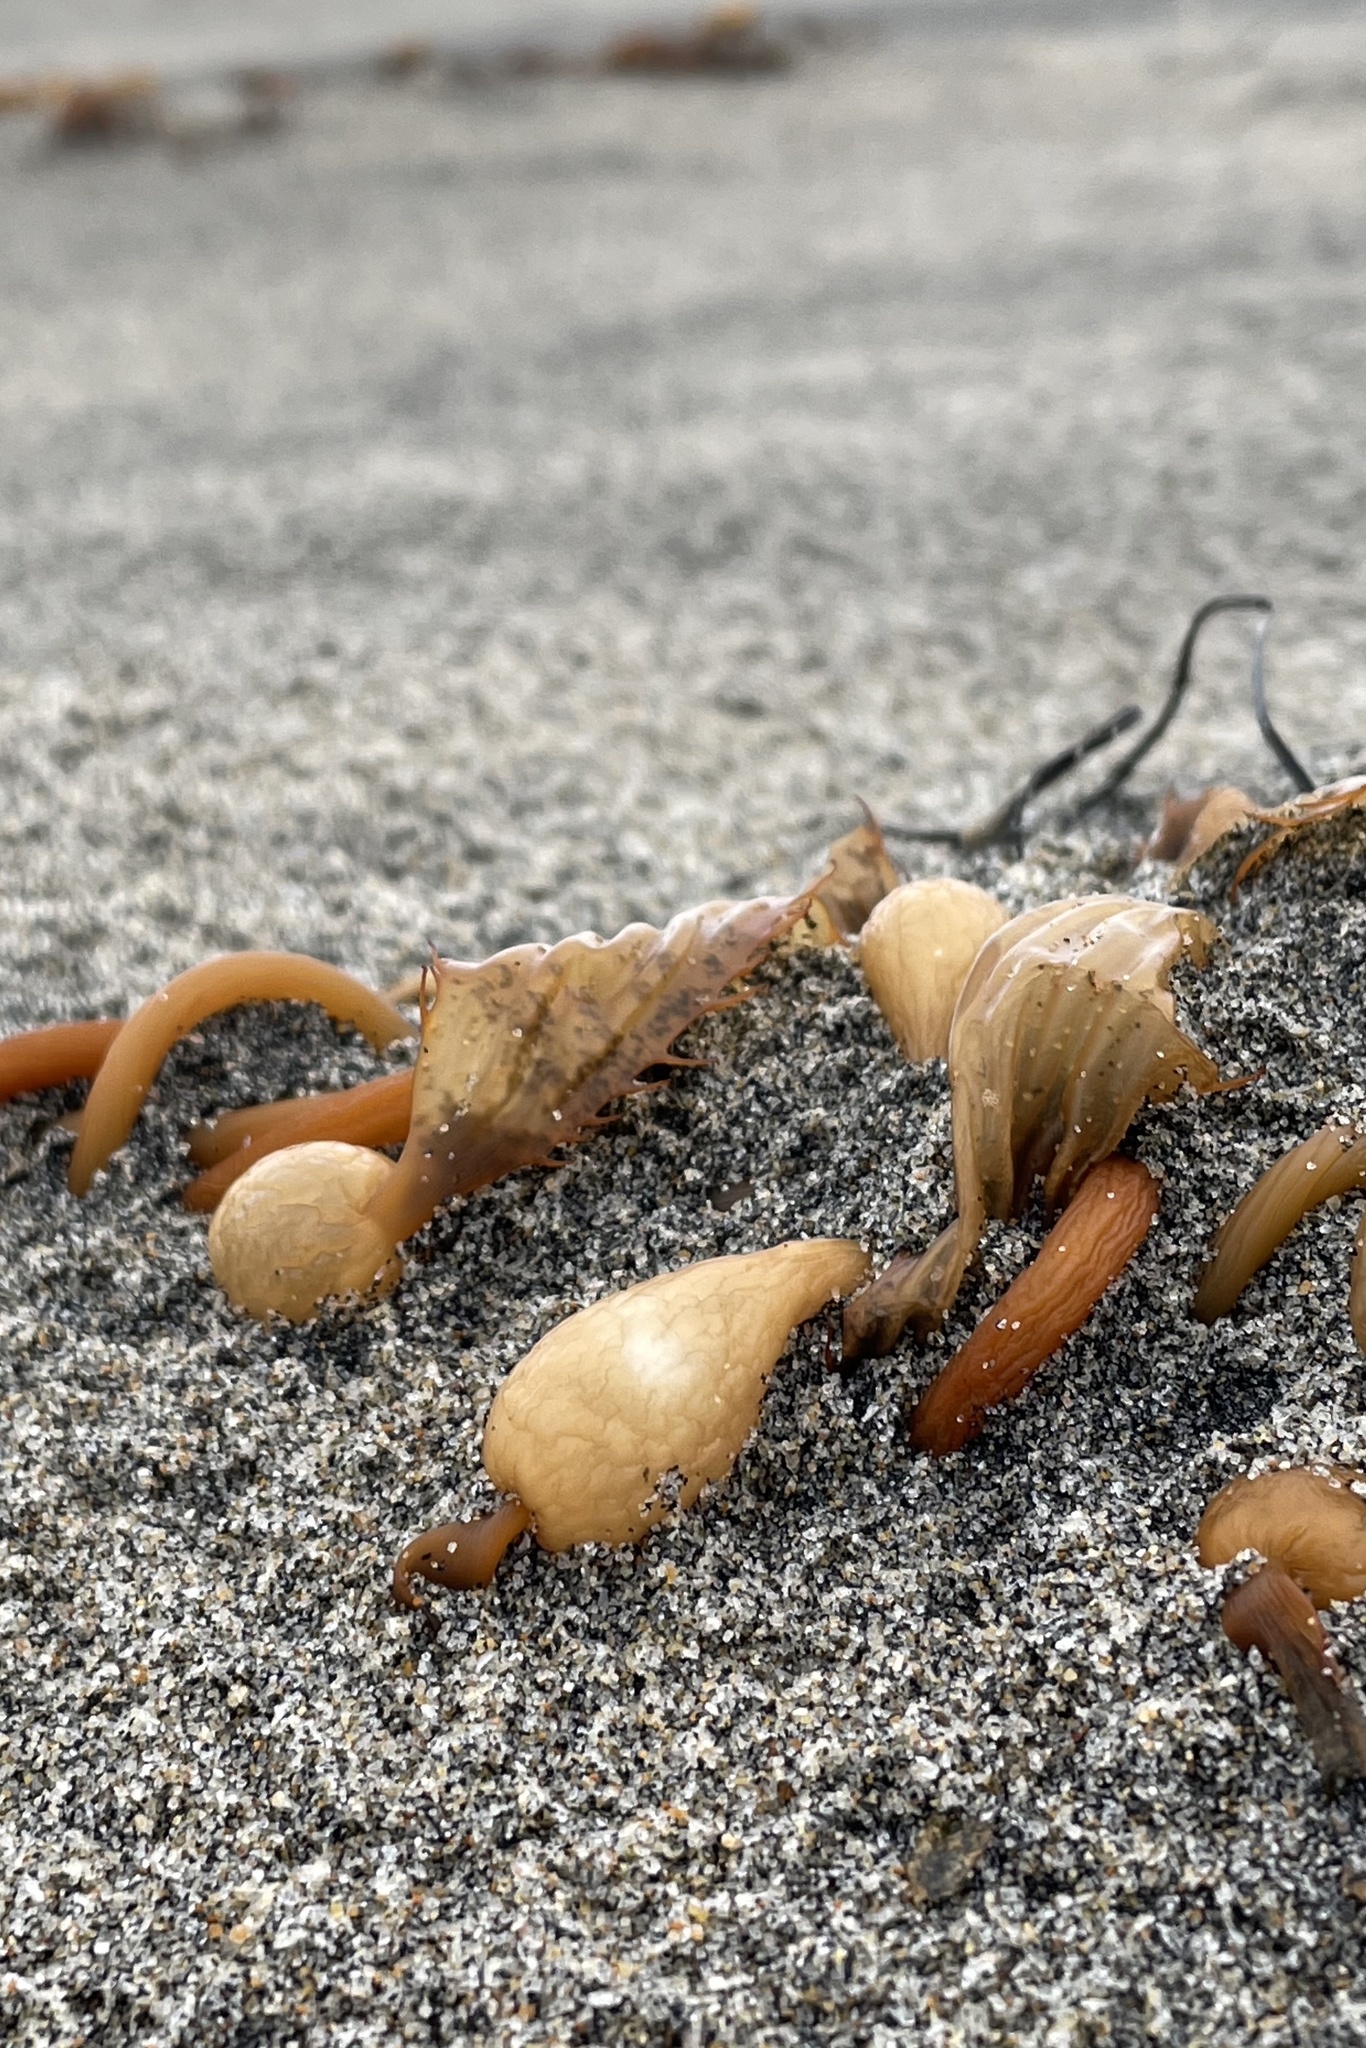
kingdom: Chromista
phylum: Ochrophyta
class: Phaeophyceae
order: Laminariales
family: Laminariaceae
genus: Macrocystis
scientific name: Macrocystis pyrifera
